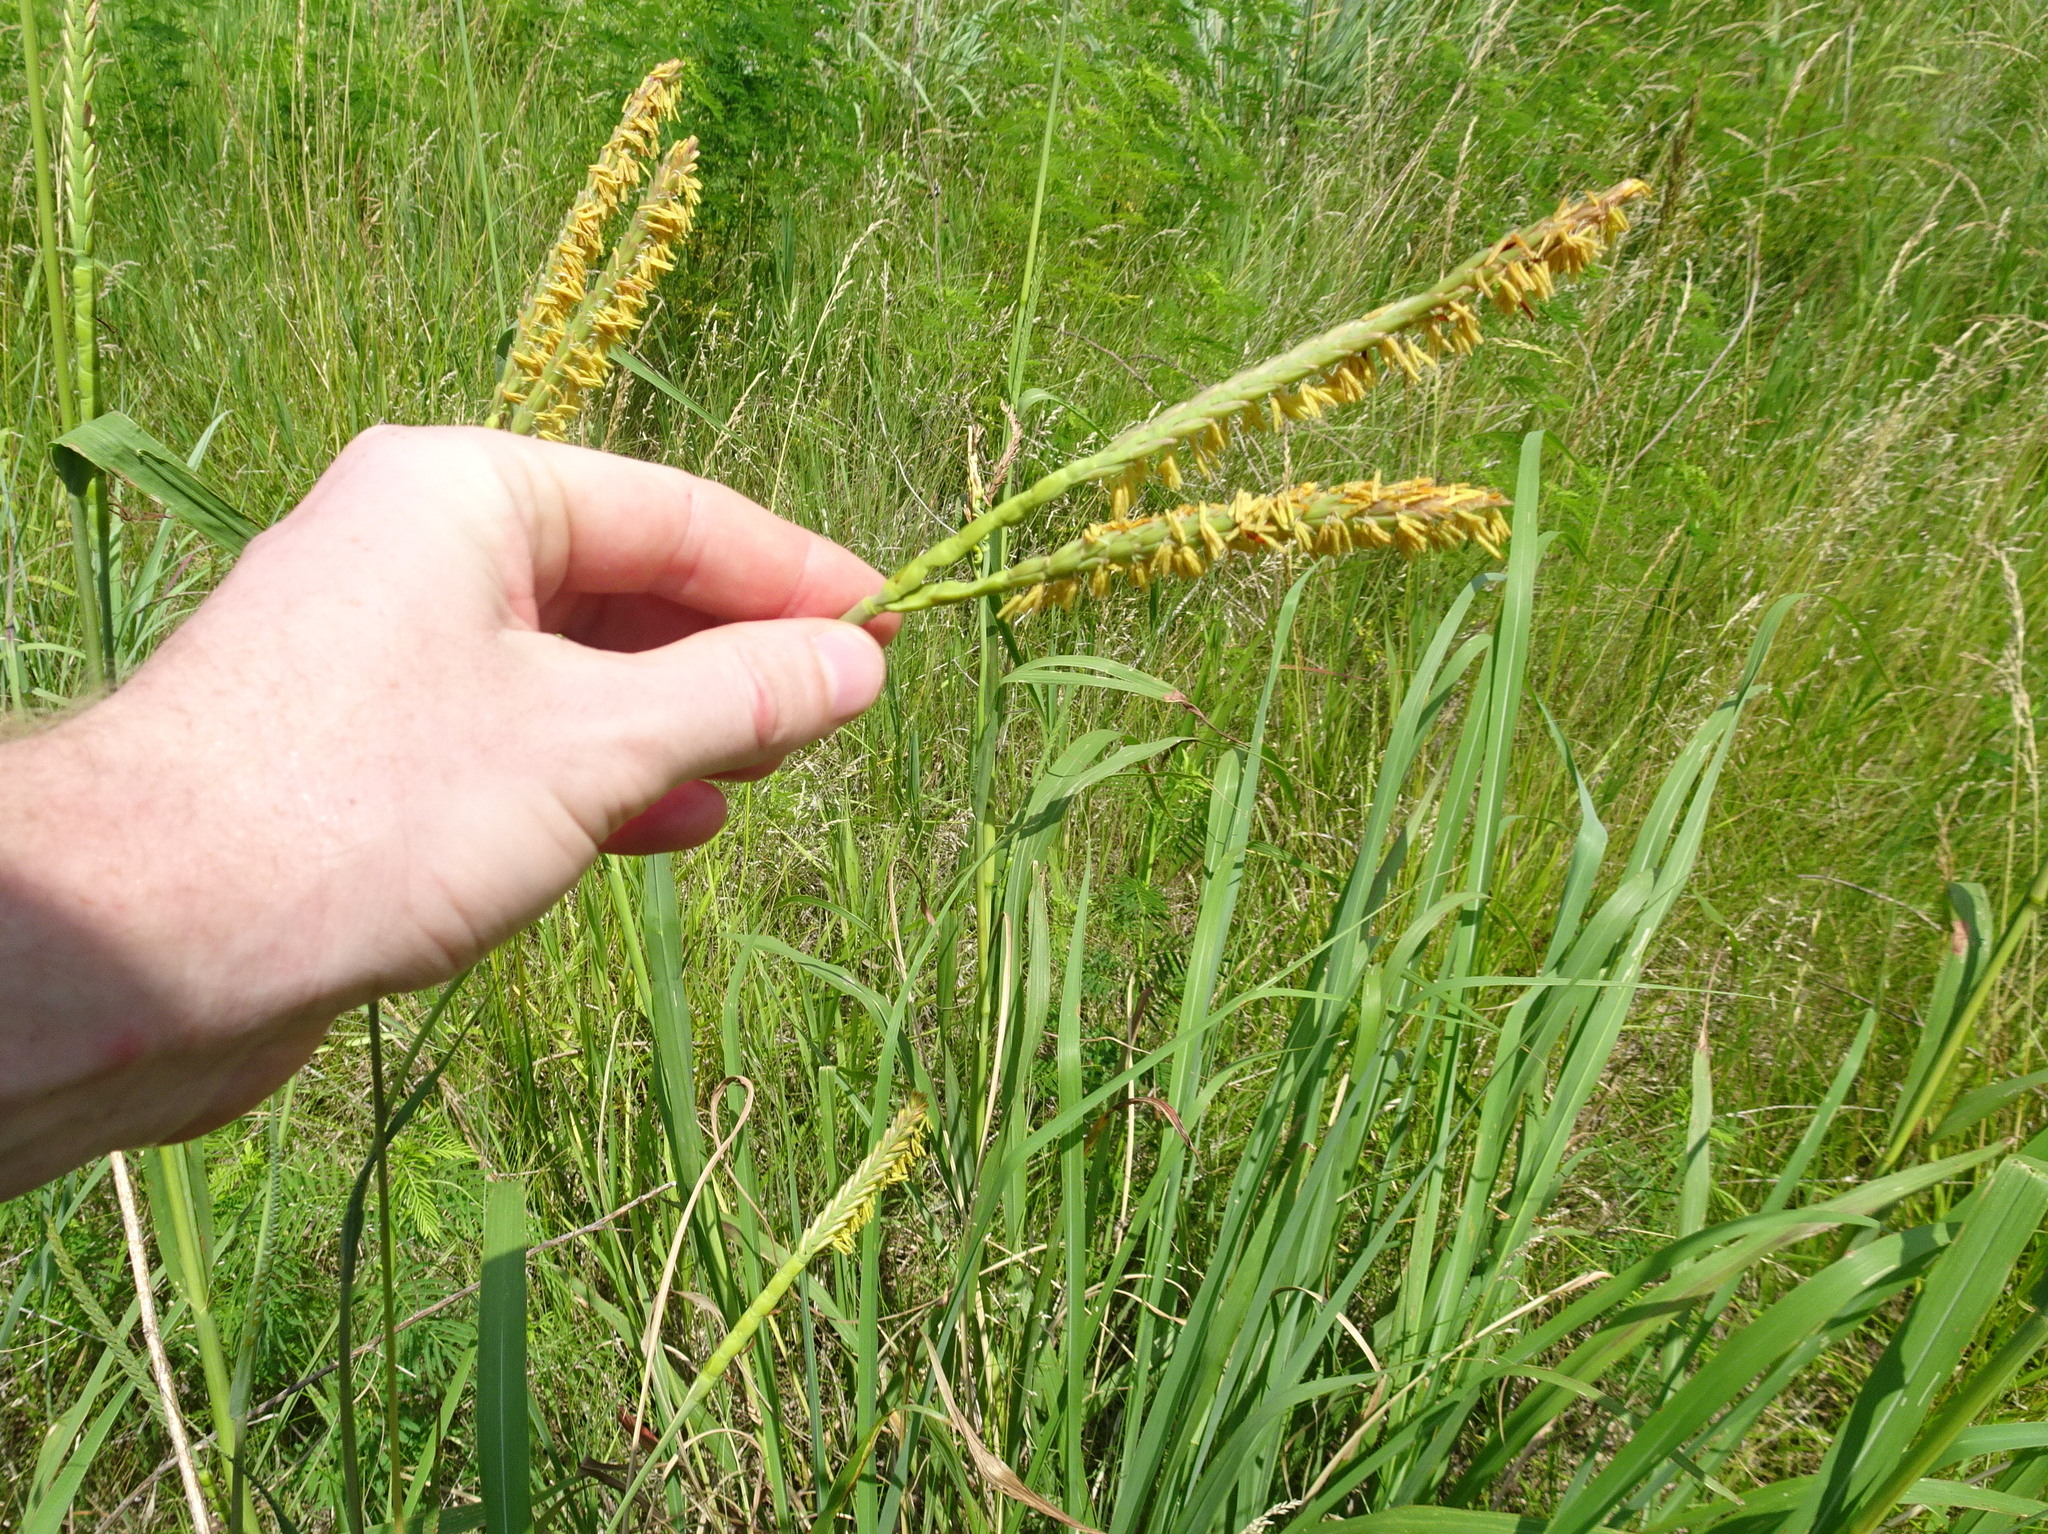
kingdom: Plantae
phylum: Tracheophyta
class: Liliopsida
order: Poales
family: Poaceae
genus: Tripsacum
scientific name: Tripsacum dactyloides
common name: Buffalo-grass
